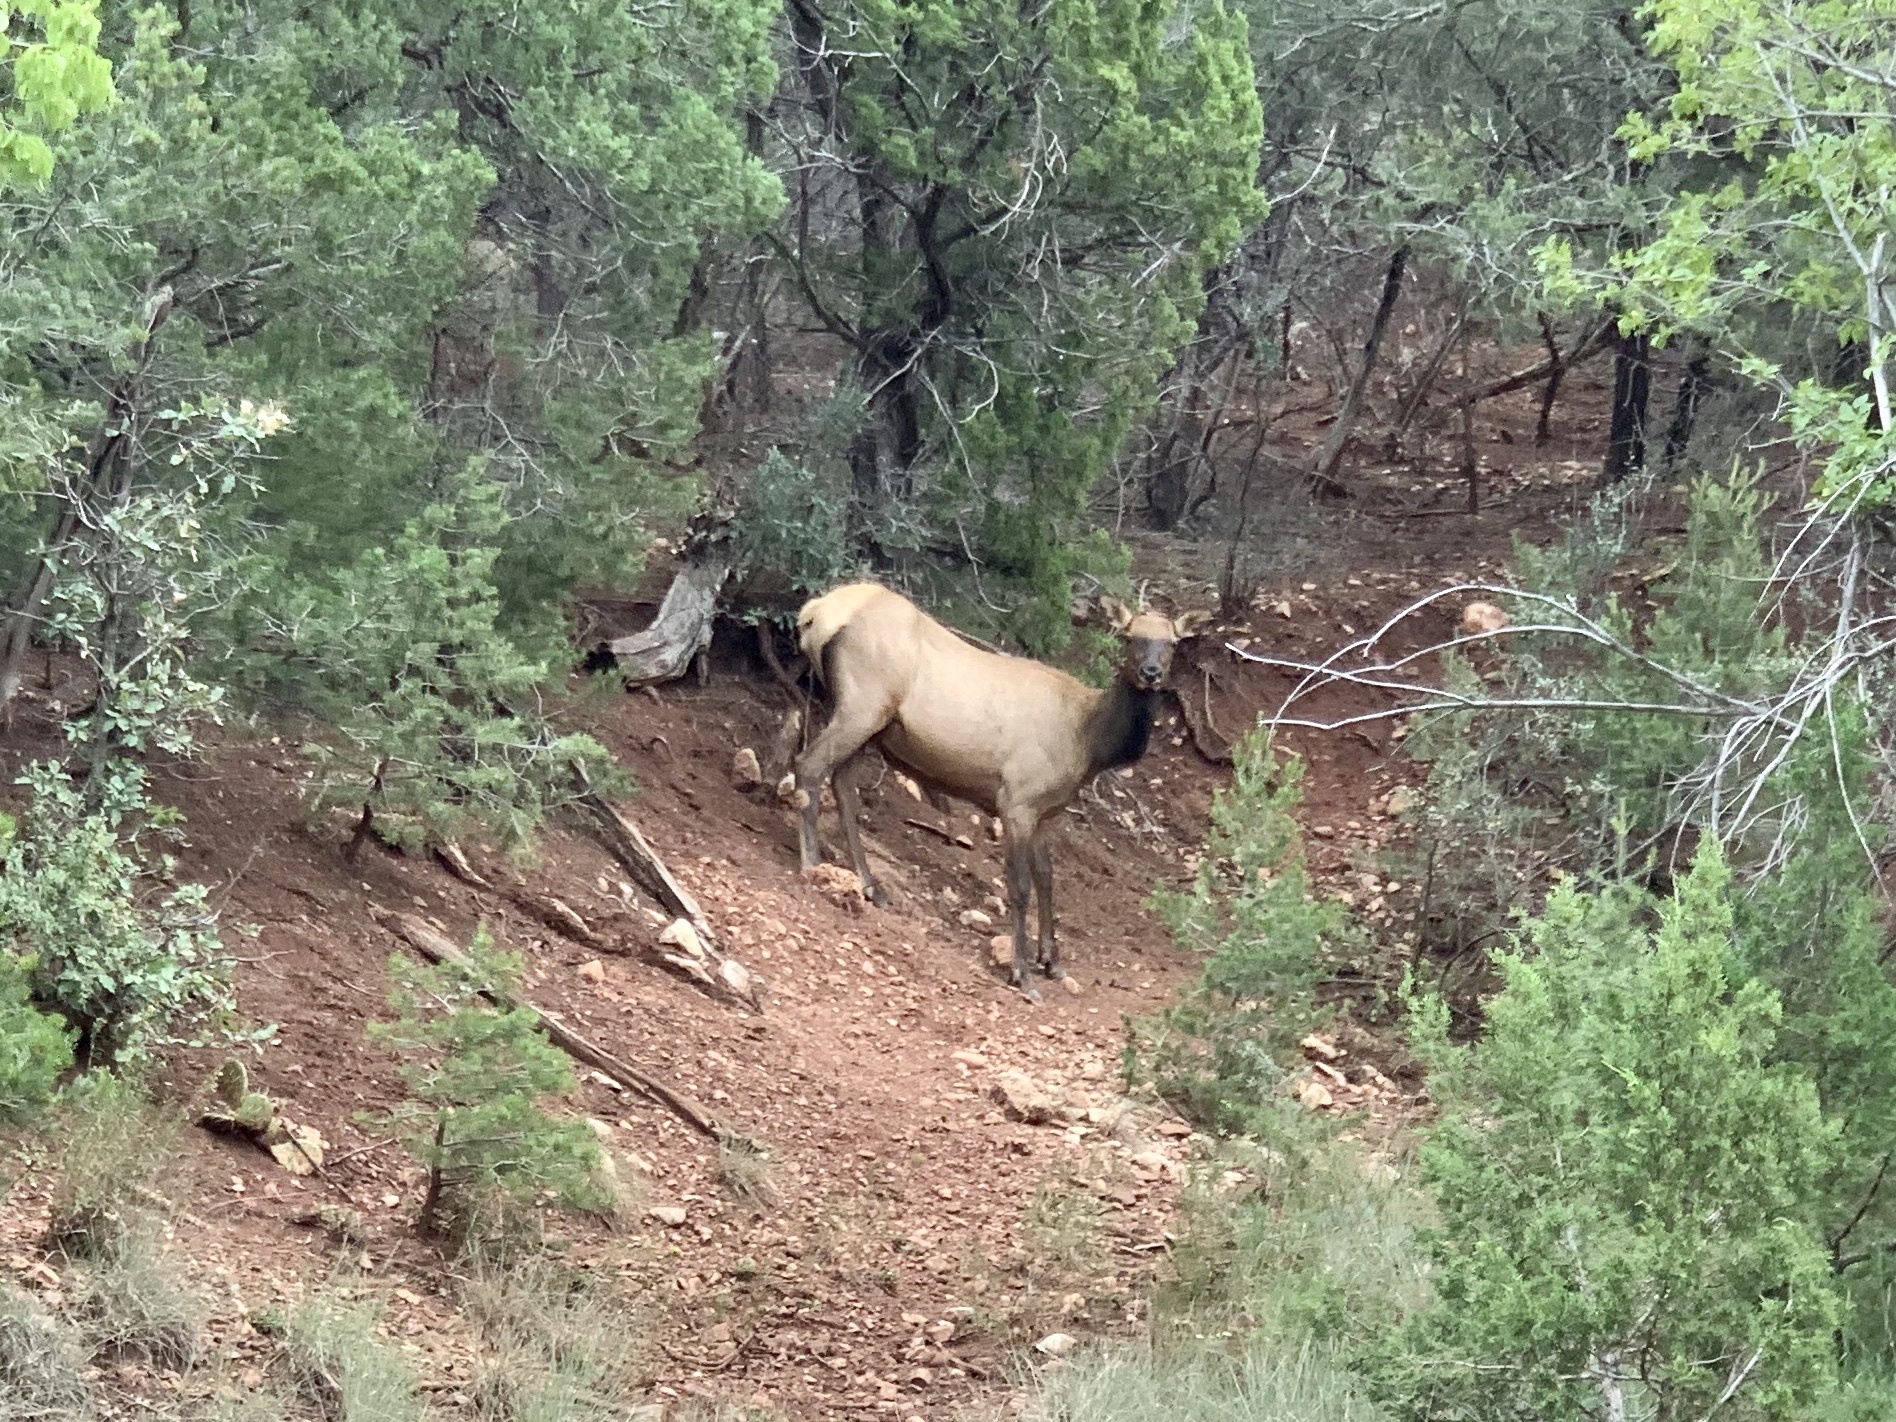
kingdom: Animalia
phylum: Chordata
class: Mammalia
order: Artiodactyla
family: Cervidae
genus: Cervus
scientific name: Cervus elaphus
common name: Red deer
